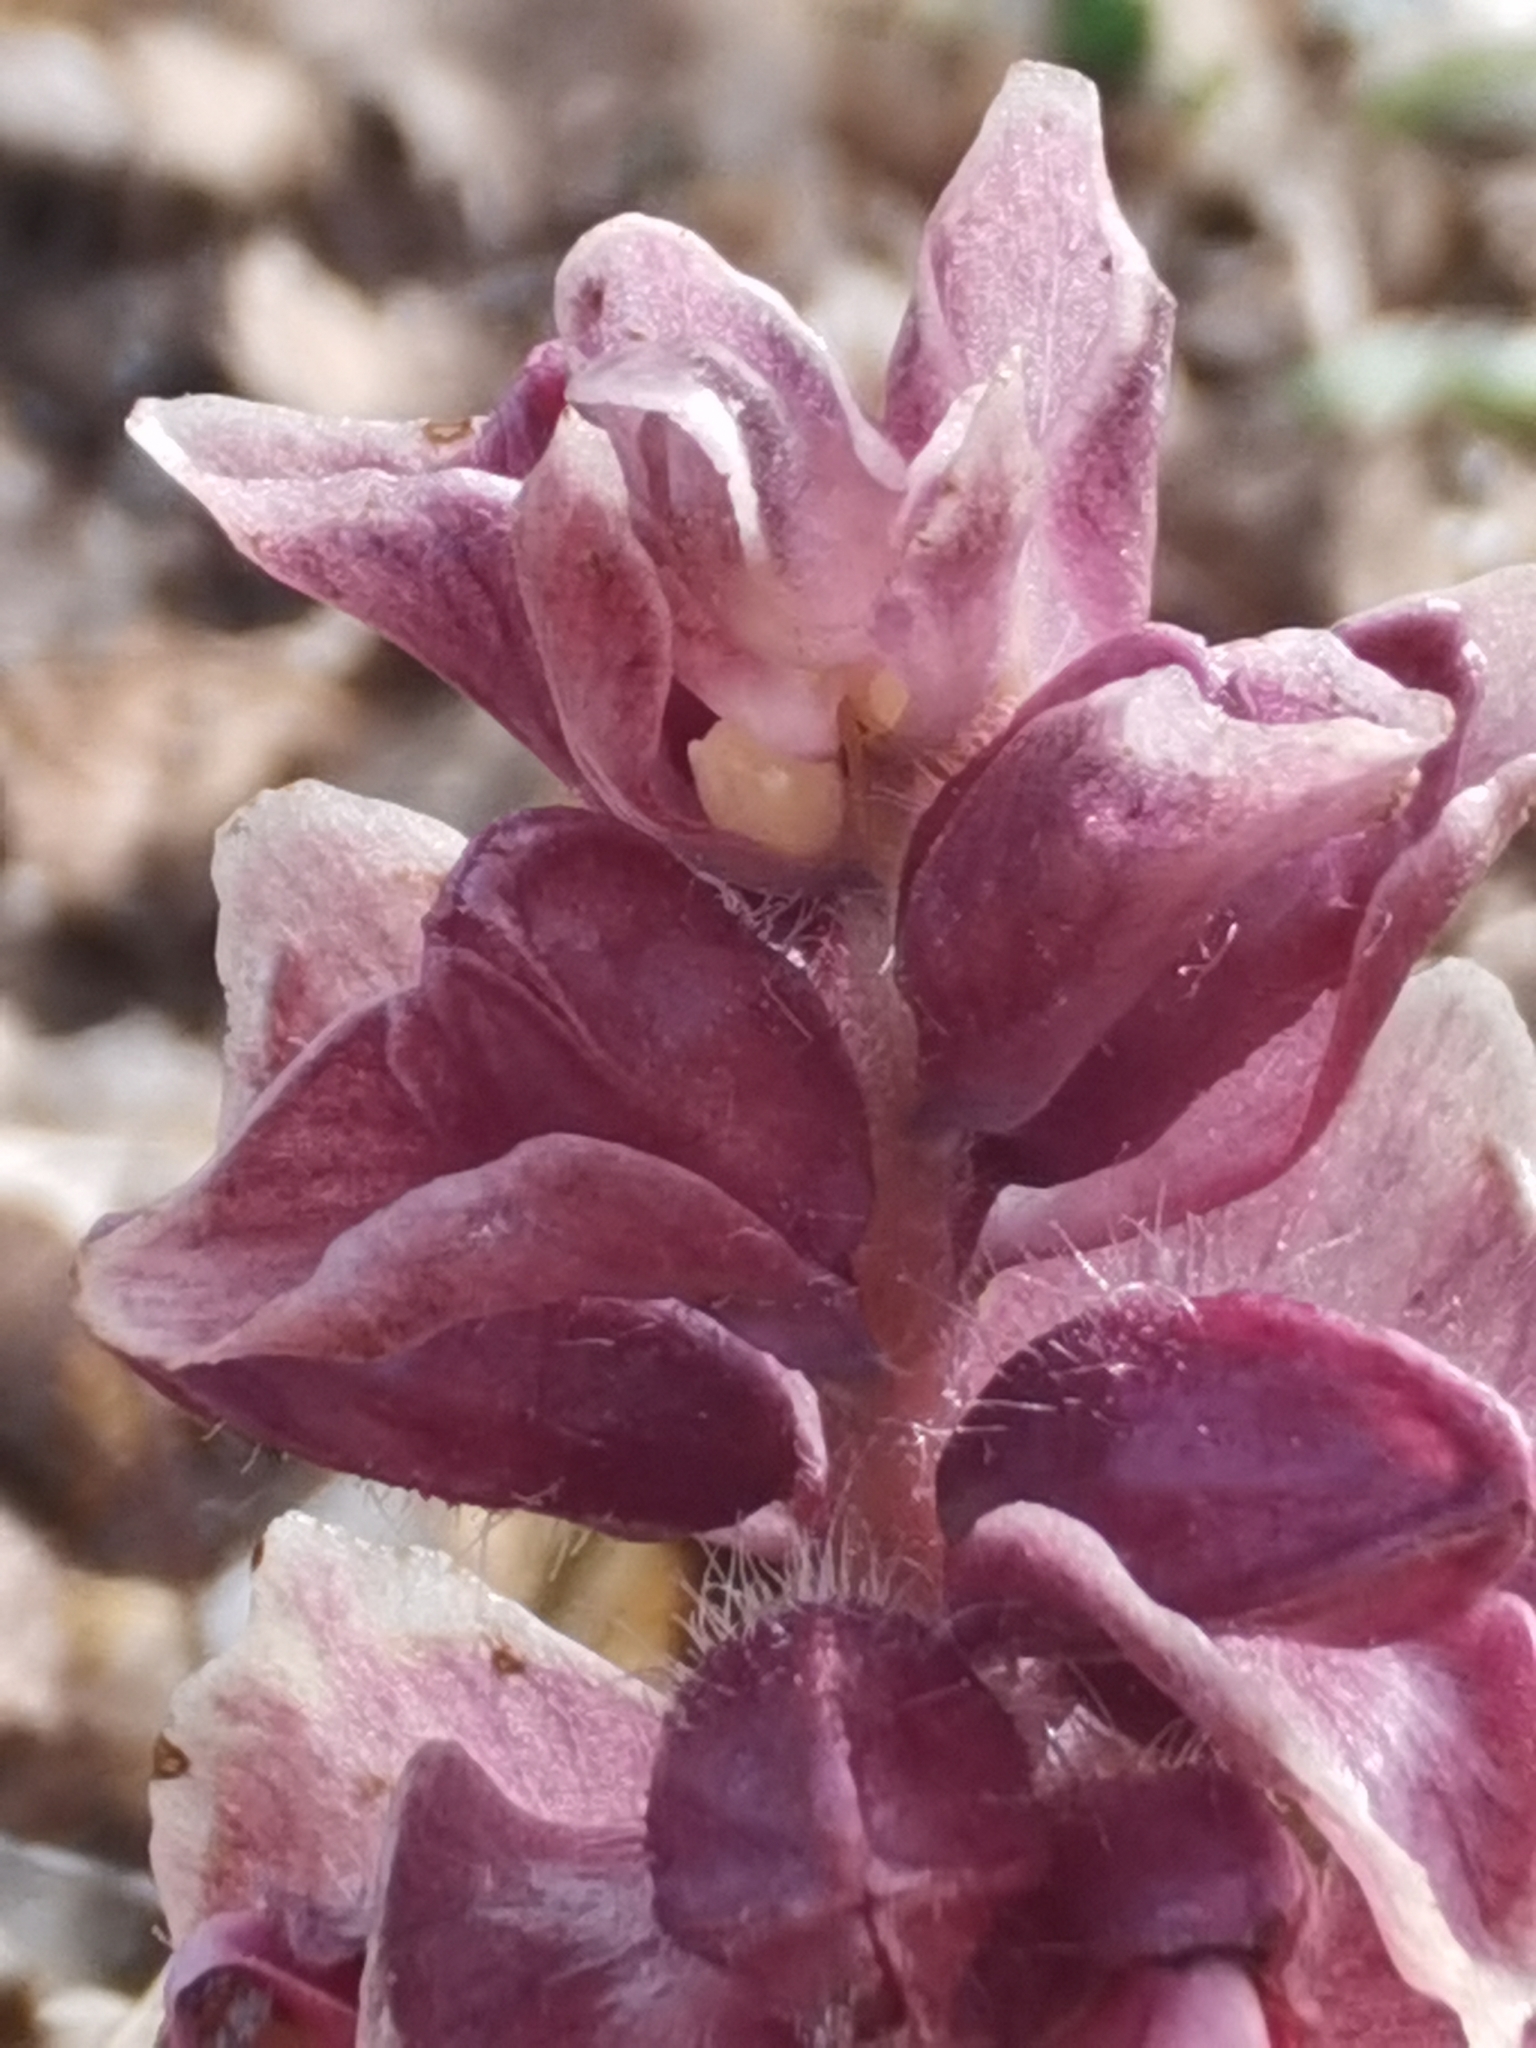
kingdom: Plantae
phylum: Tracheophyta
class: Magnoliopsida
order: Lamiales
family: Orobanchaceae
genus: Lathraea
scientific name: Lathraea squamaria
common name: Toothwort
